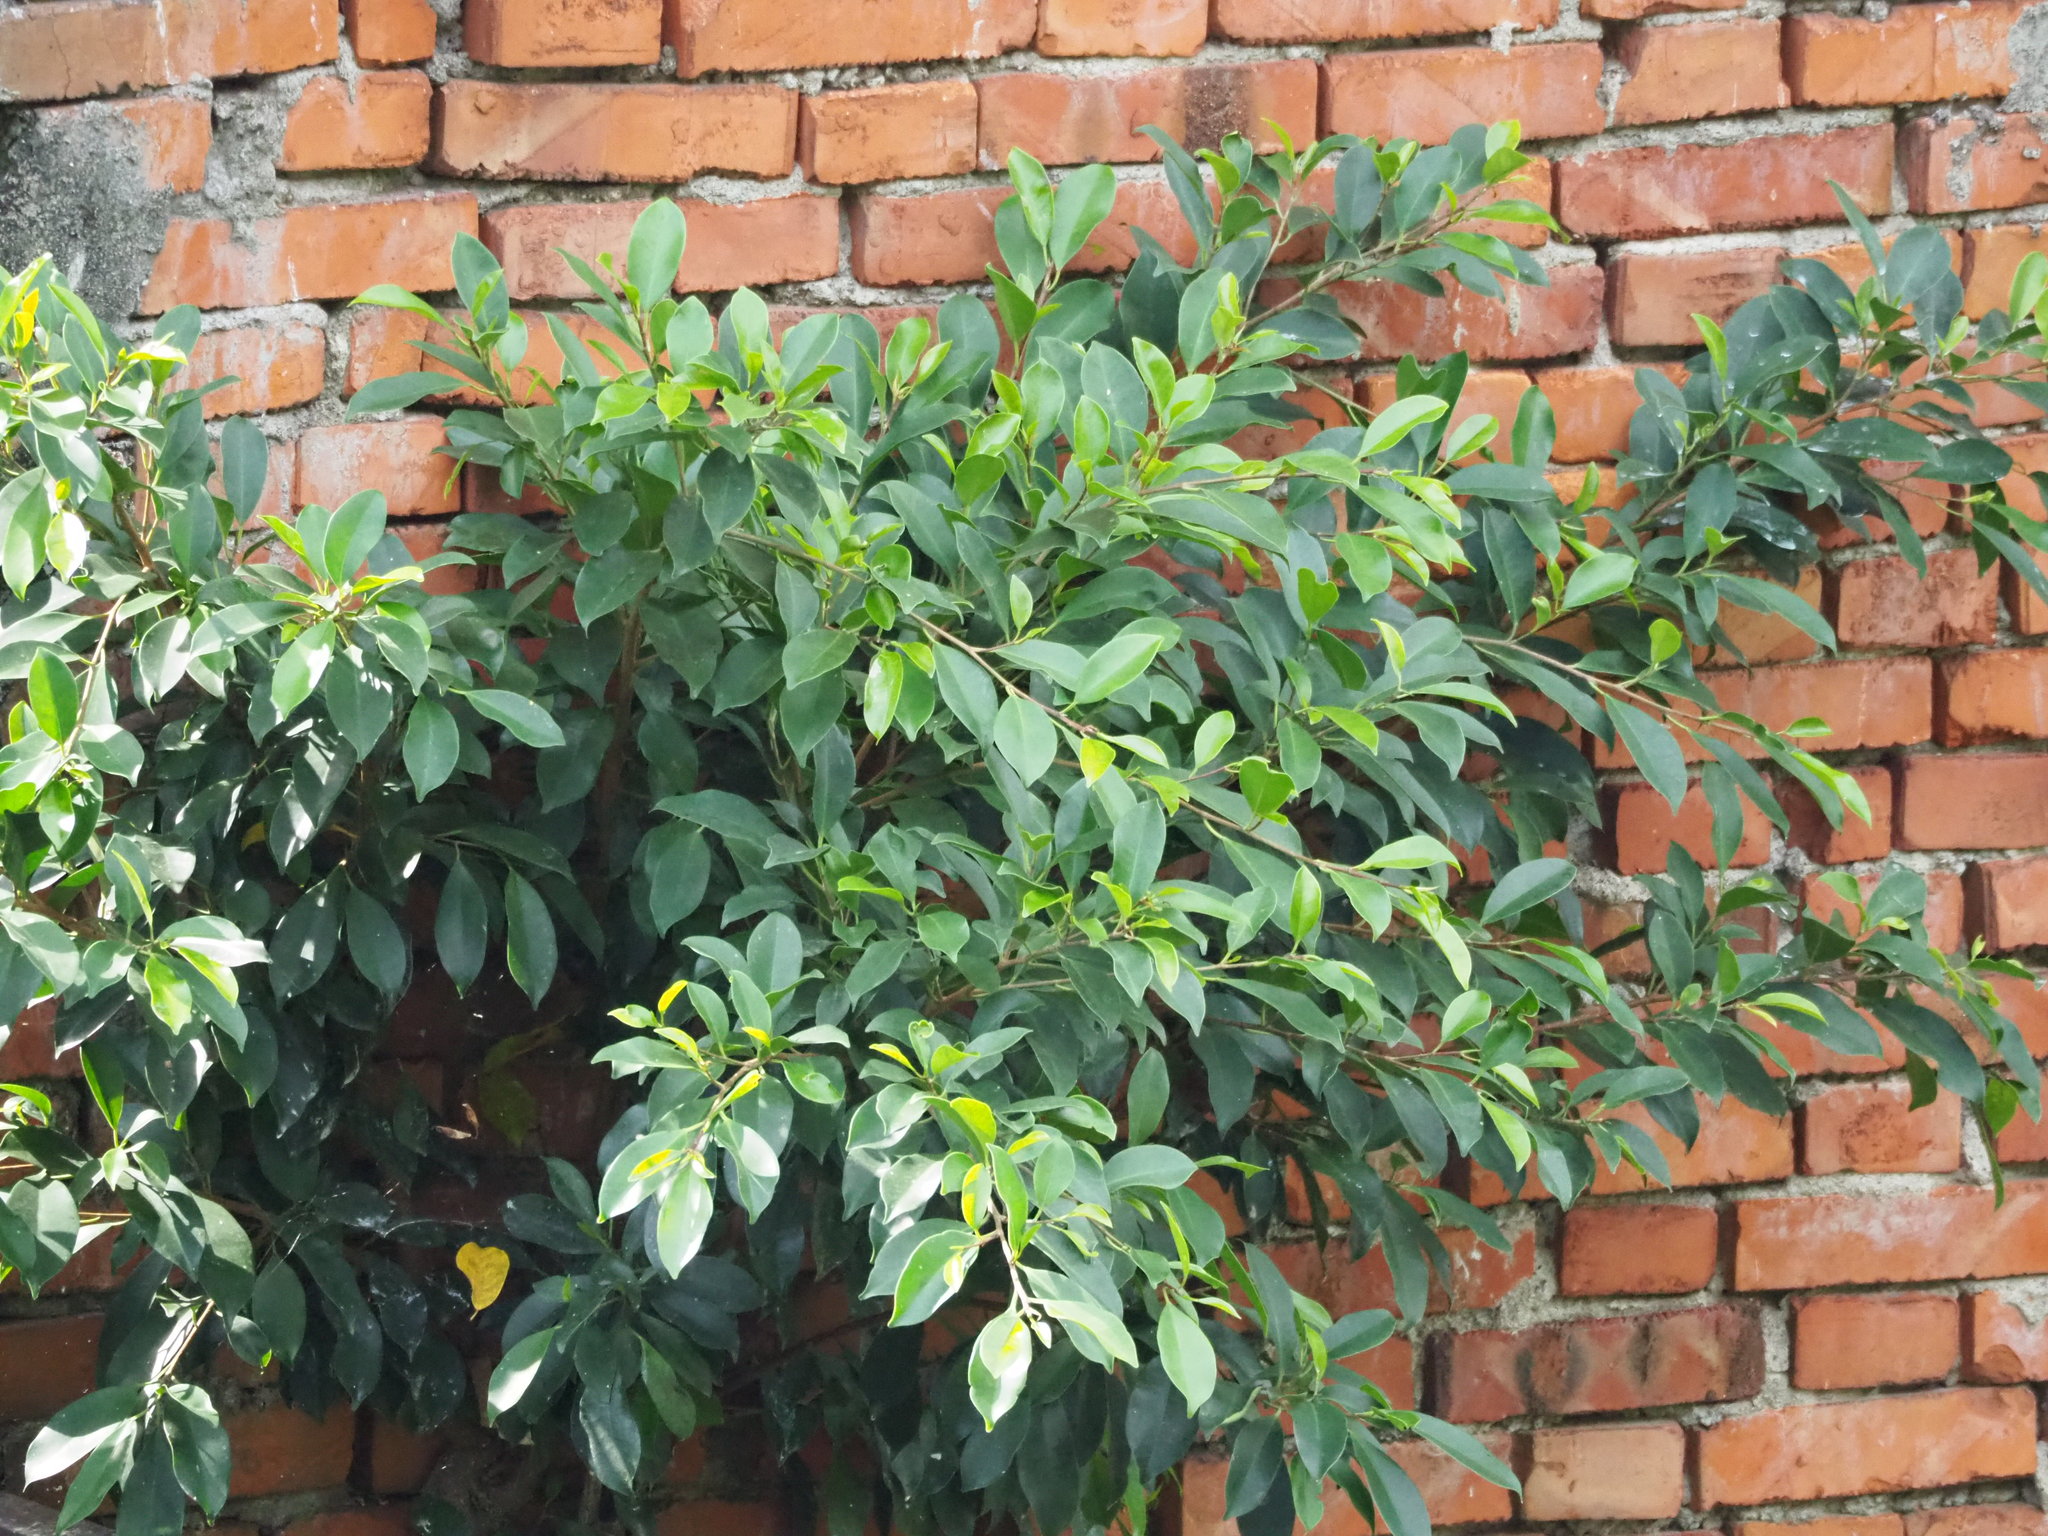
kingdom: Plantae
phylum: Tracheophyta
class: Magnoliopsida
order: Rosales
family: Moraceae
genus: Ficus
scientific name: Ficus microcarpa
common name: Chinese banyan
